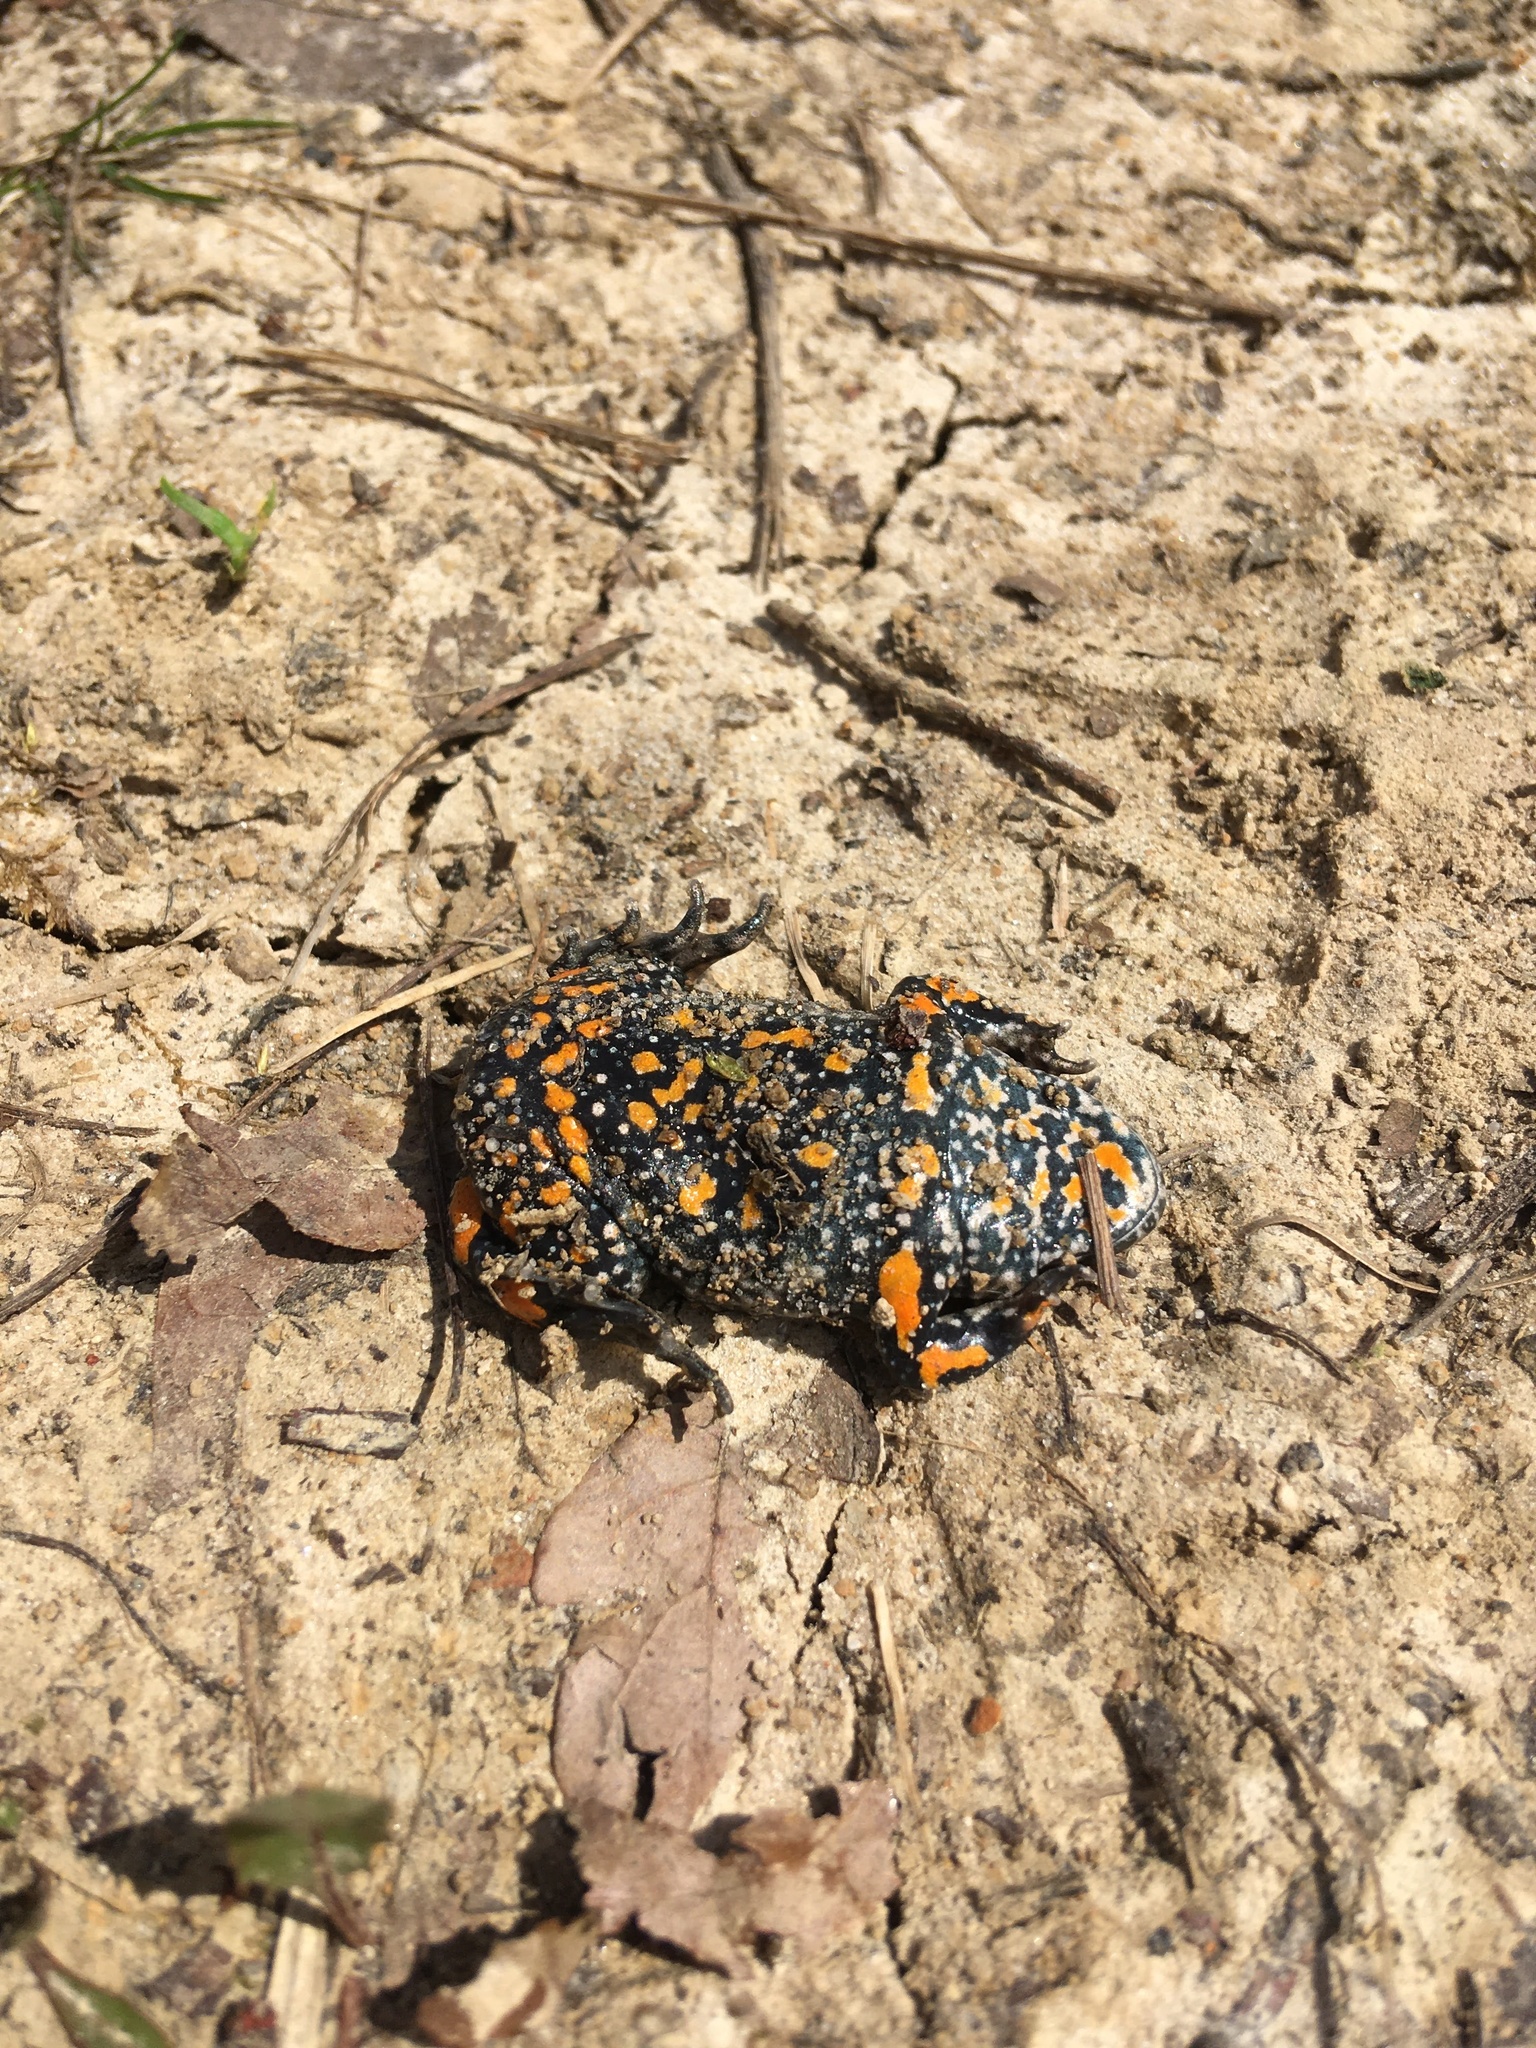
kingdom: Animalia
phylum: Chordata
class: Amphibia
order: Anura
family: Bombinatoridae
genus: Bombina
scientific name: Bombina bombina
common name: Fire-bellied toad
